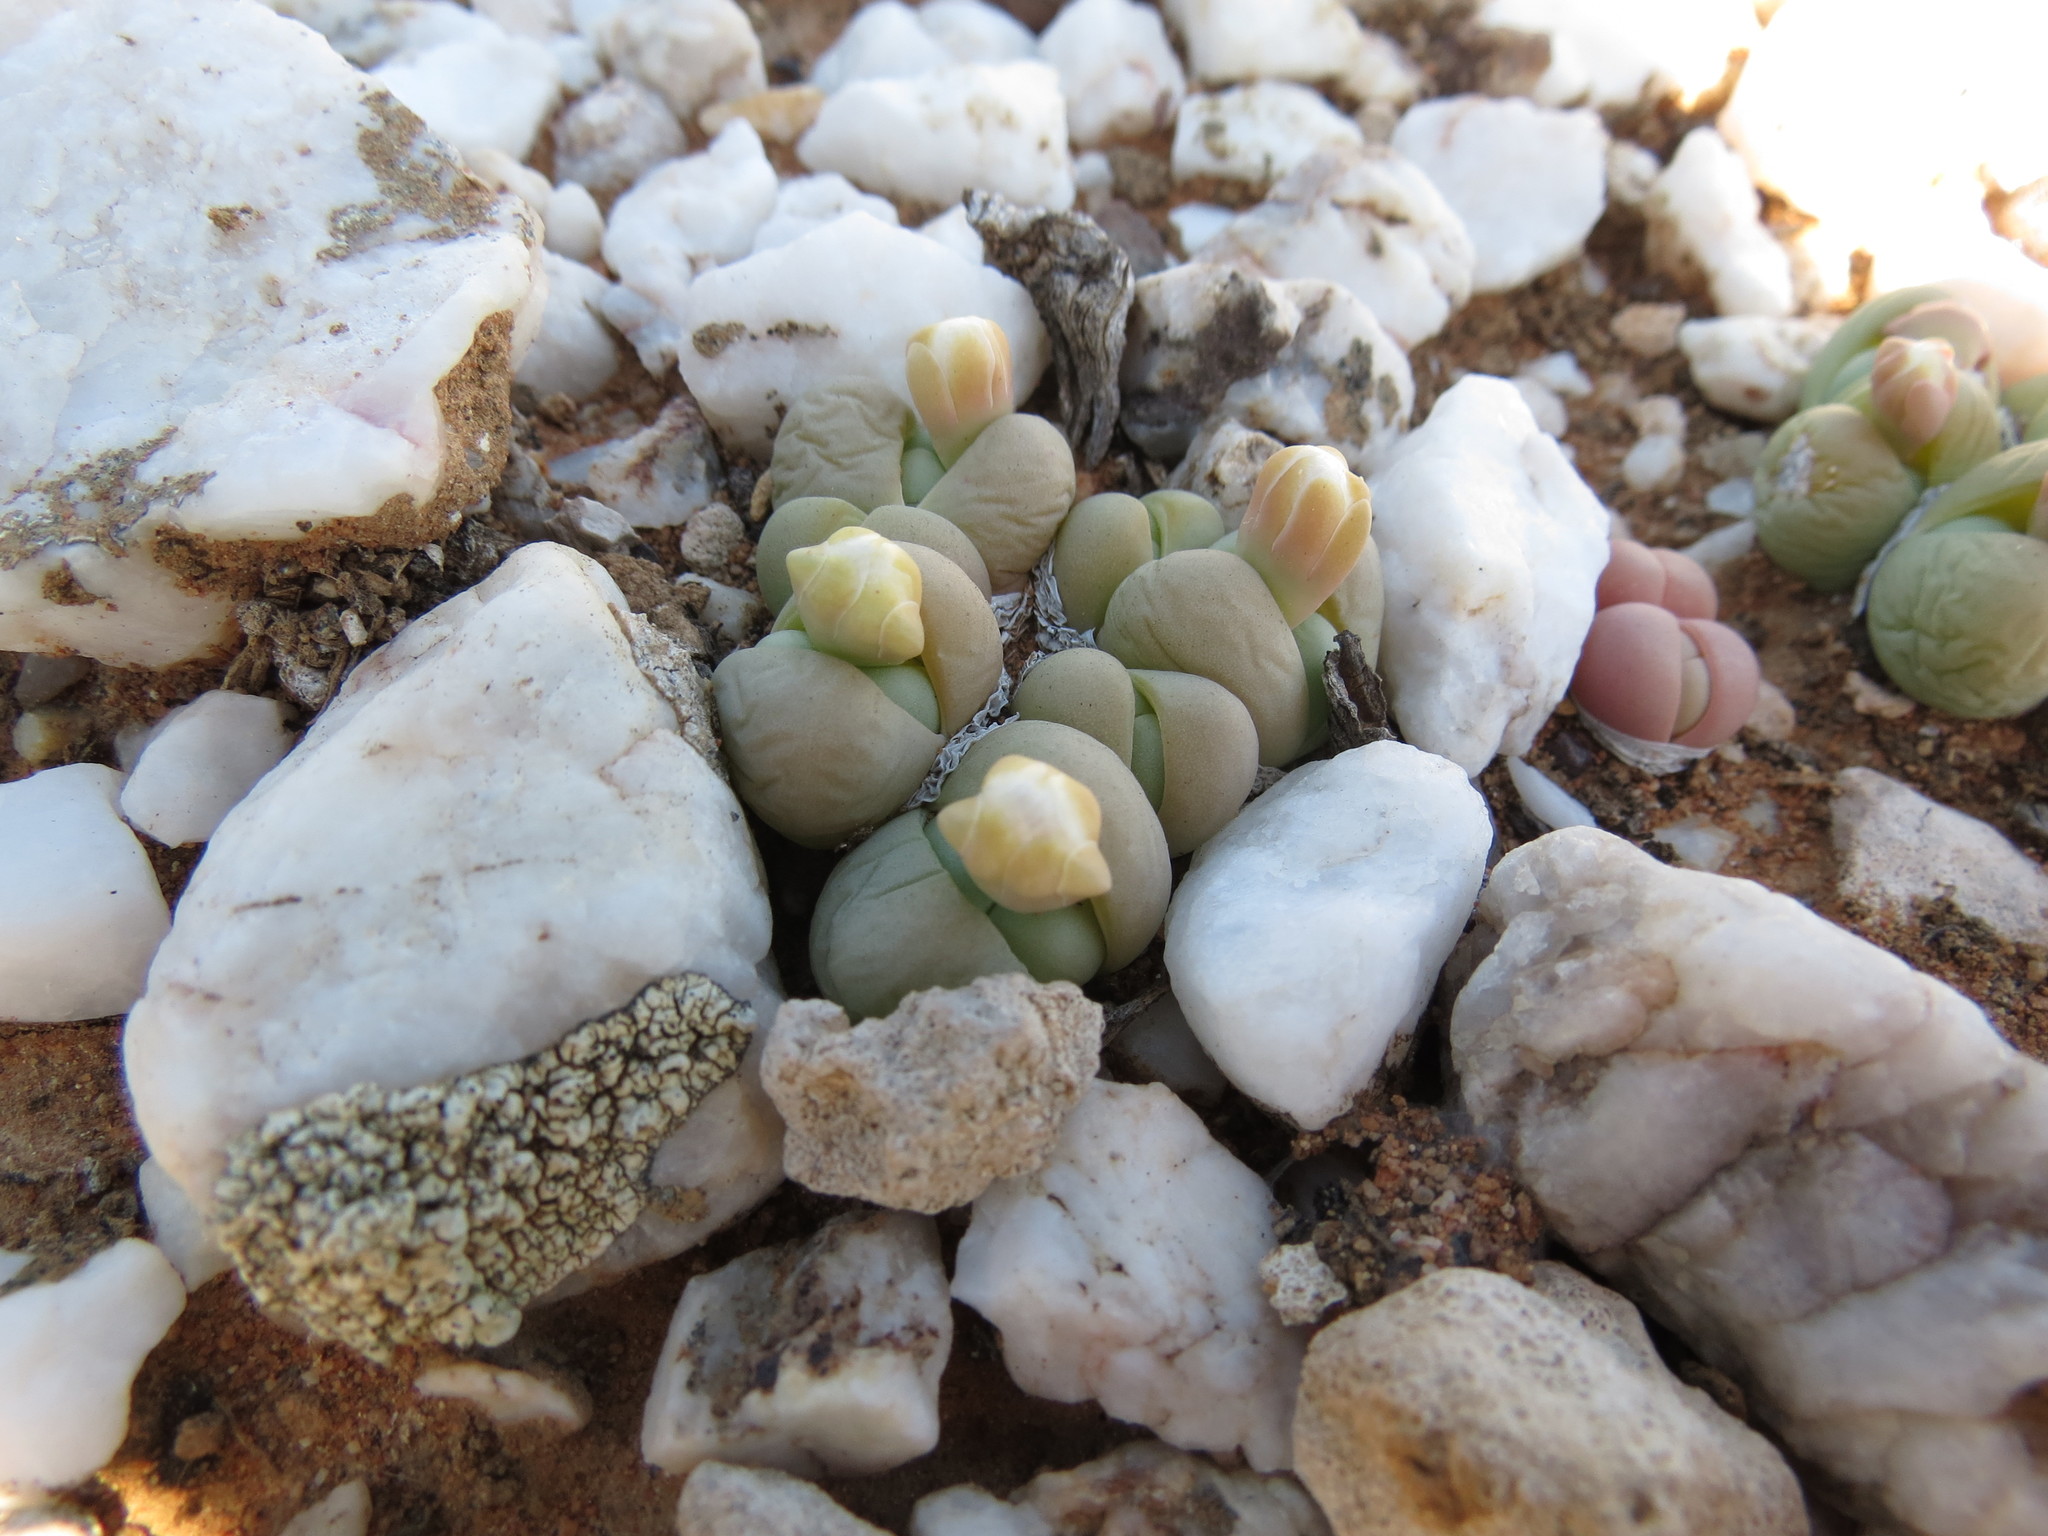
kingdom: Plantae
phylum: Tracheophyta
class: Magnoliopsida
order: Caryophyllales
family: Aizoaceae
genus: Gibbaeum
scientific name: Gibbaeum heathii
